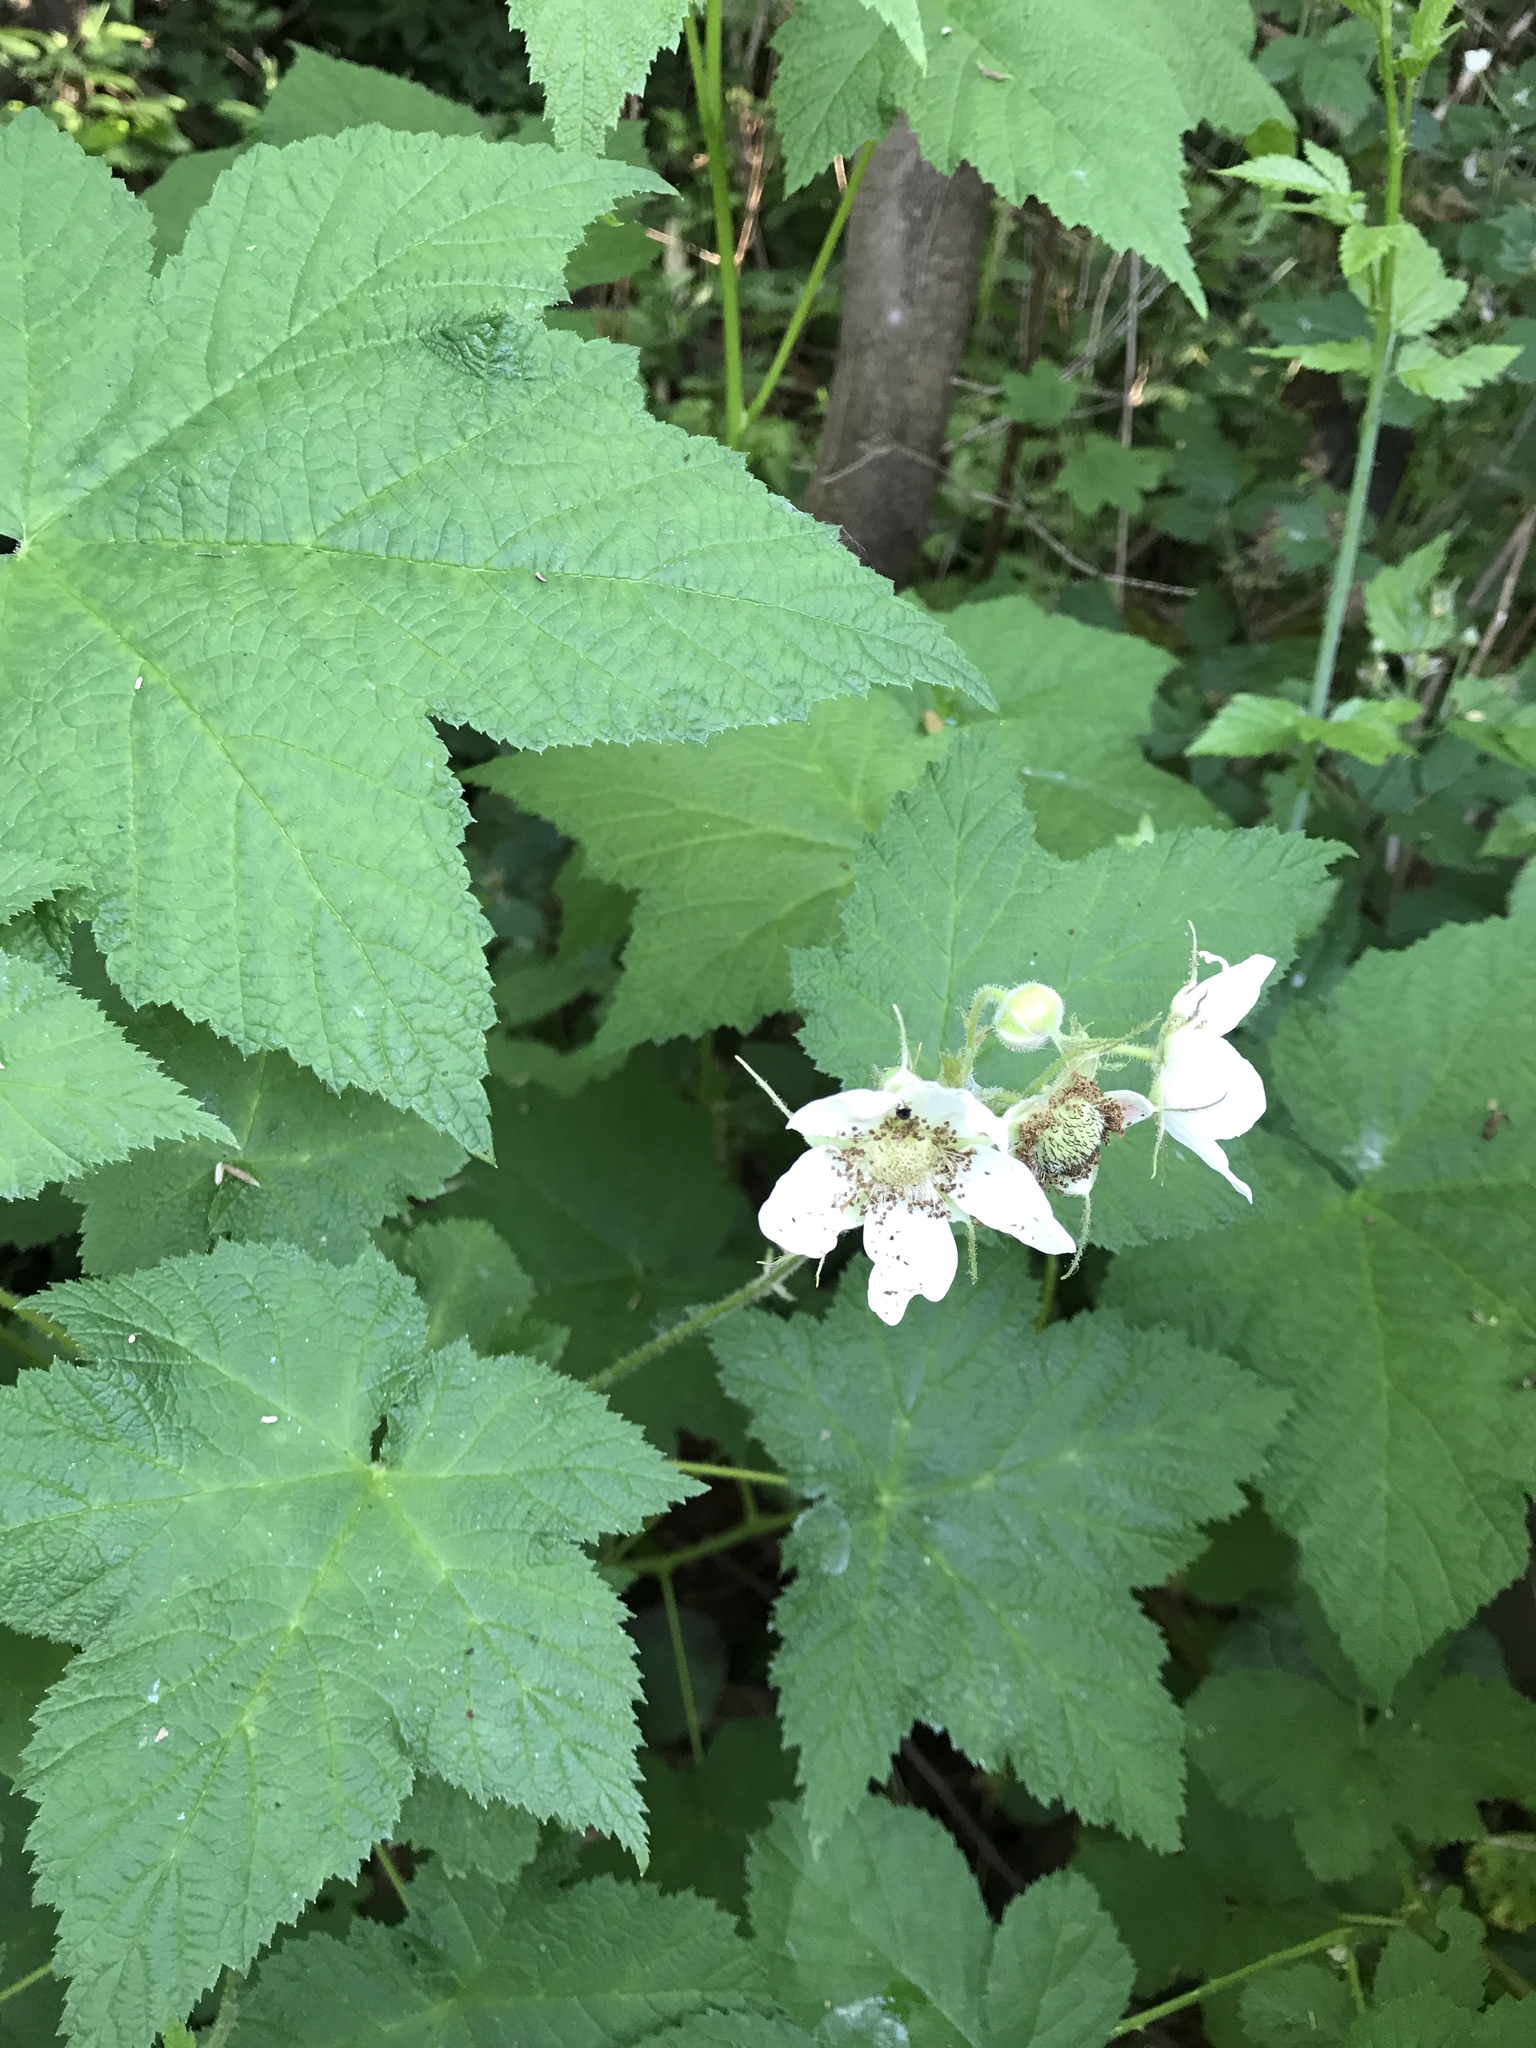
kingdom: Plantae
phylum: Tracheophyta
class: Magnoliopsida
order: Rosales
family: Rosaceae
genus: Rubus
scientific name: Rubus parviflorus
